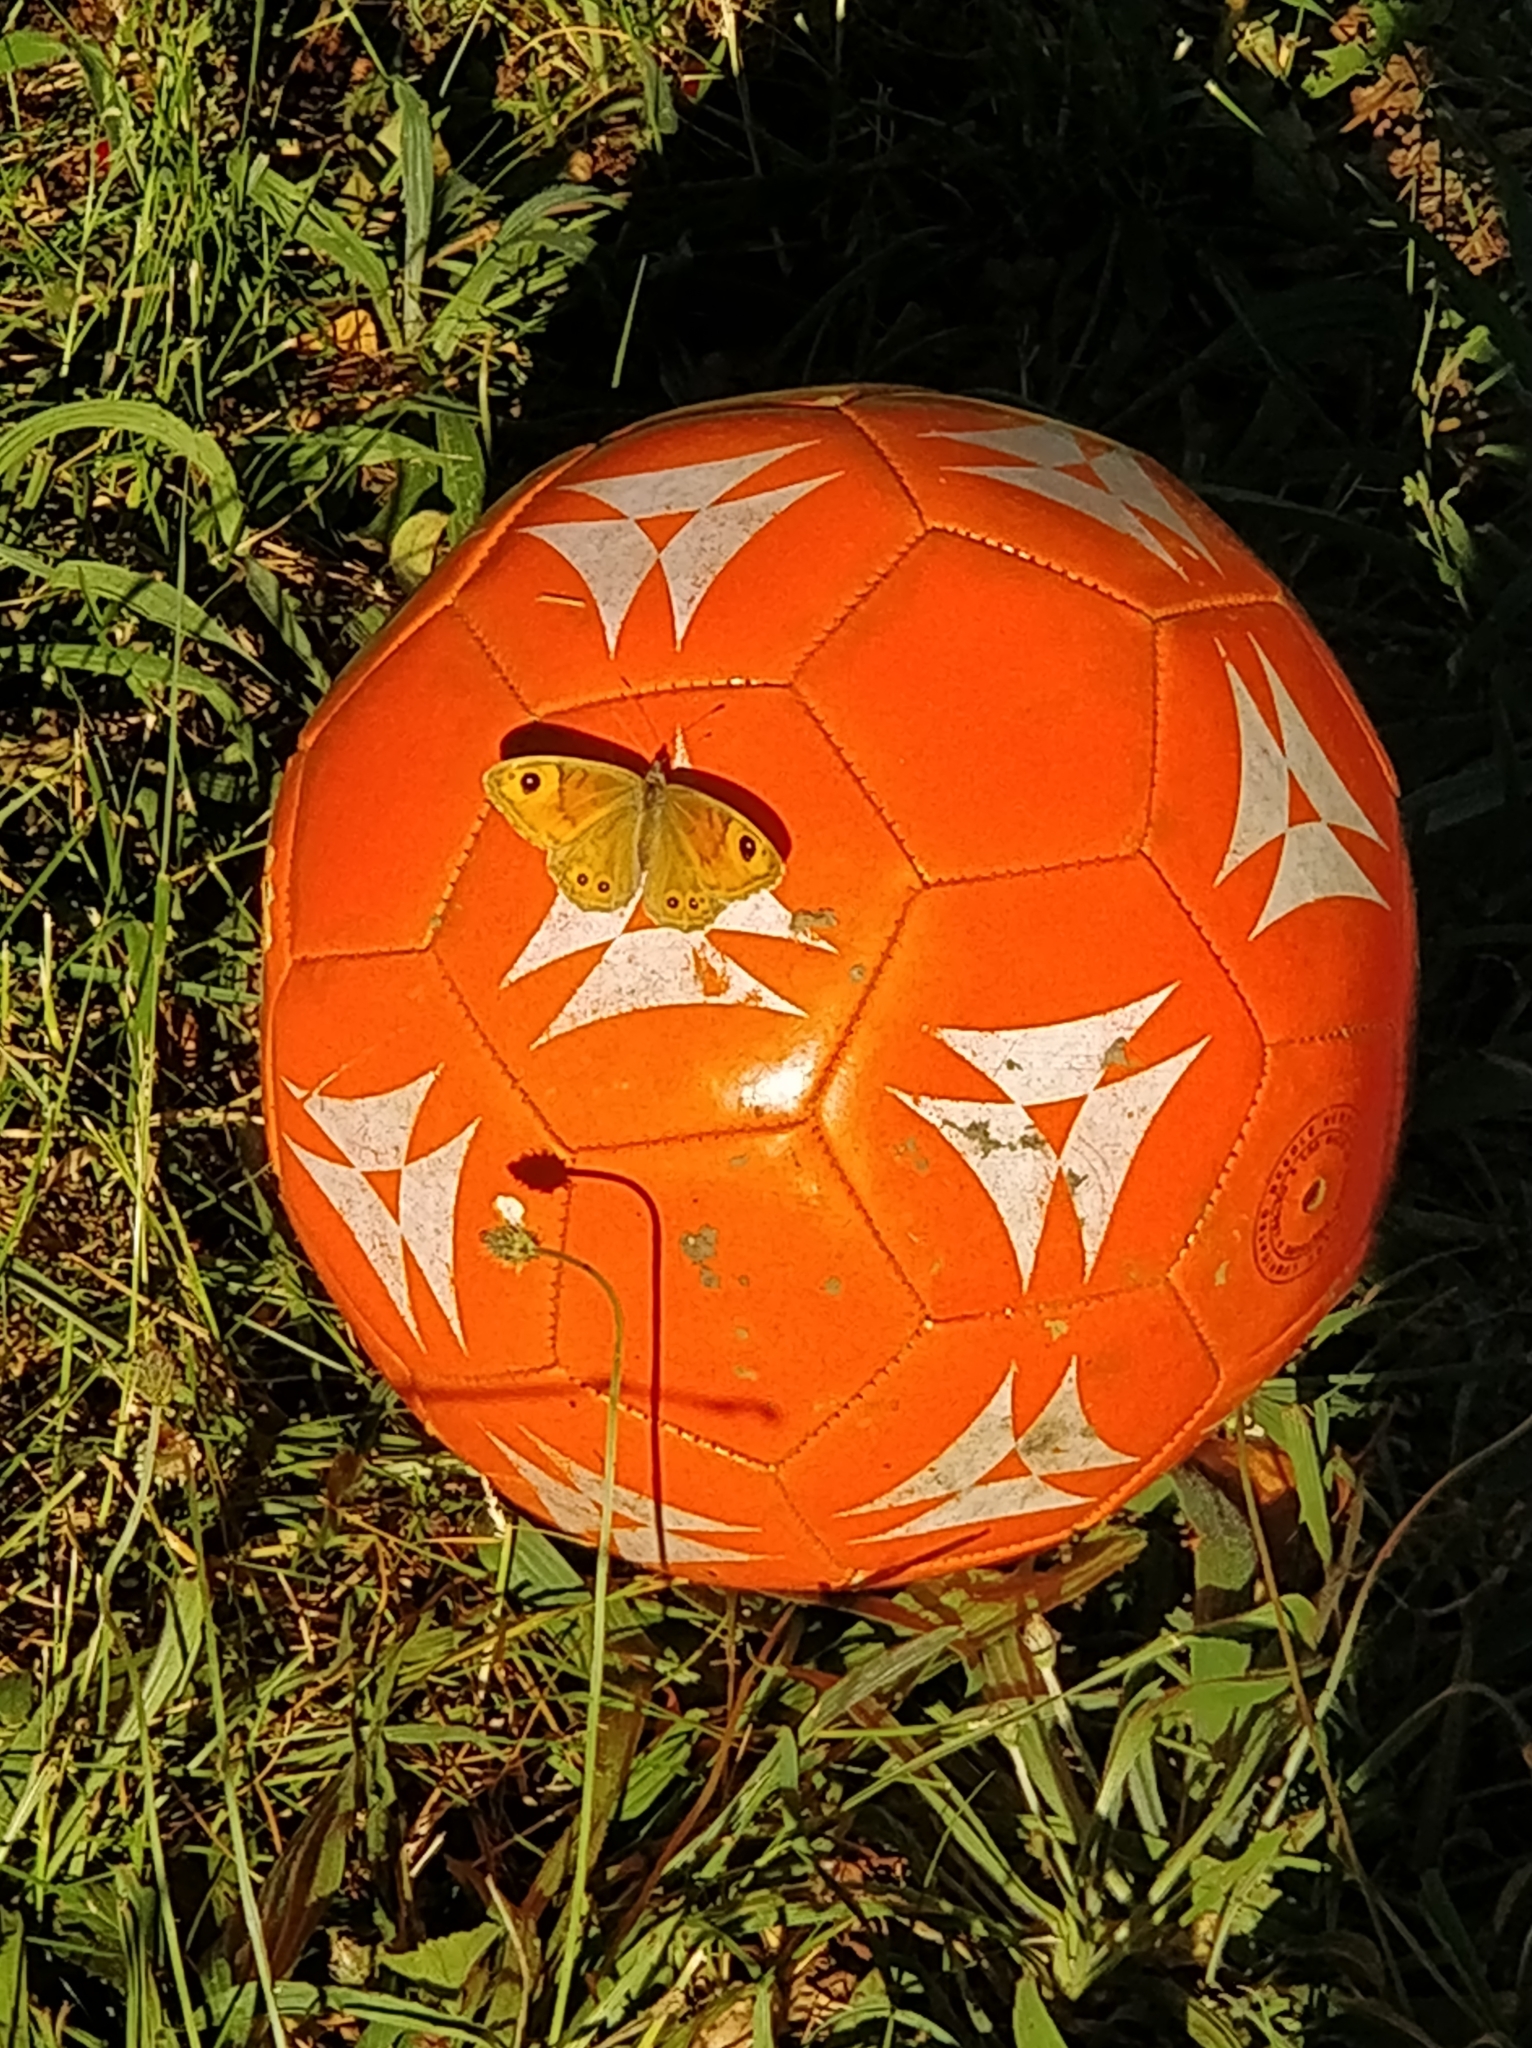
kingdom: Animalia
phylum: Arthropoda
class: Insecta
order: Lepidoptera
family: Nymphalidae
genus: Pararge
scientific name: Pararge Lasiommata maera
